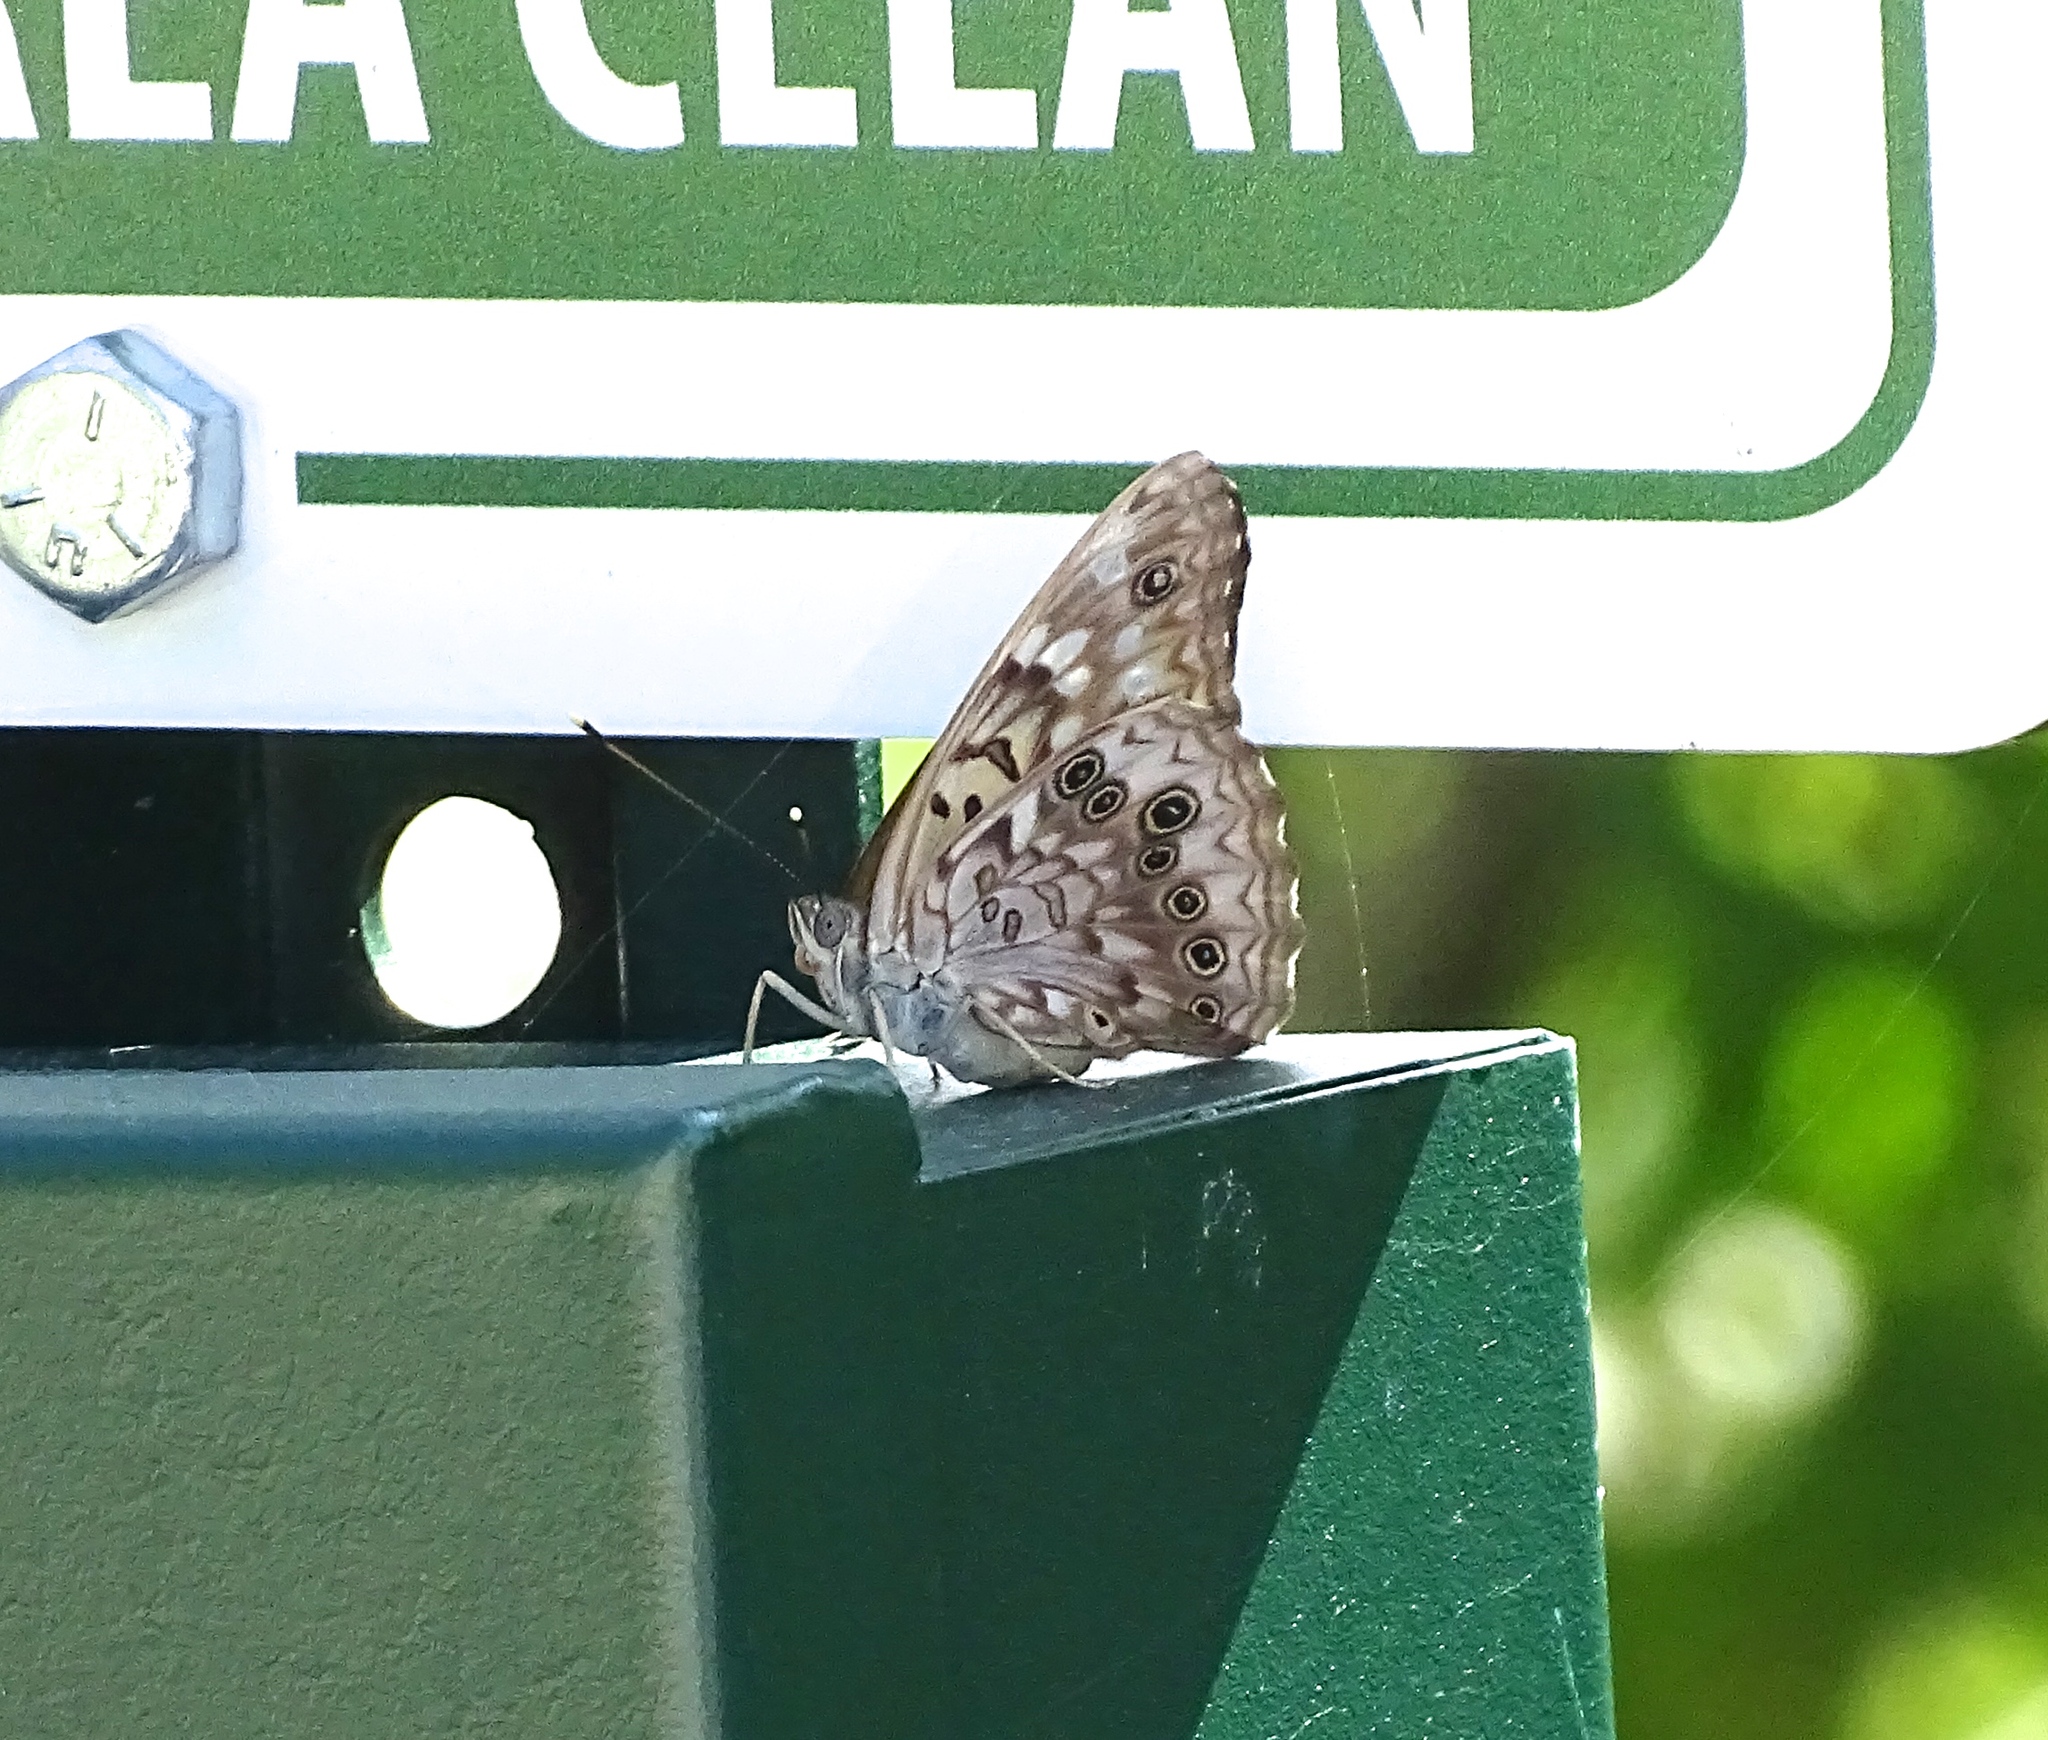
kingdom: Animalia
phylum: Arthropoda
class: Insecta
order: Lepidoptera
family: Nymphalidae
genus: Asterocampa
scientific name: Asterocampa celtis
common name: Hackberry emperor
